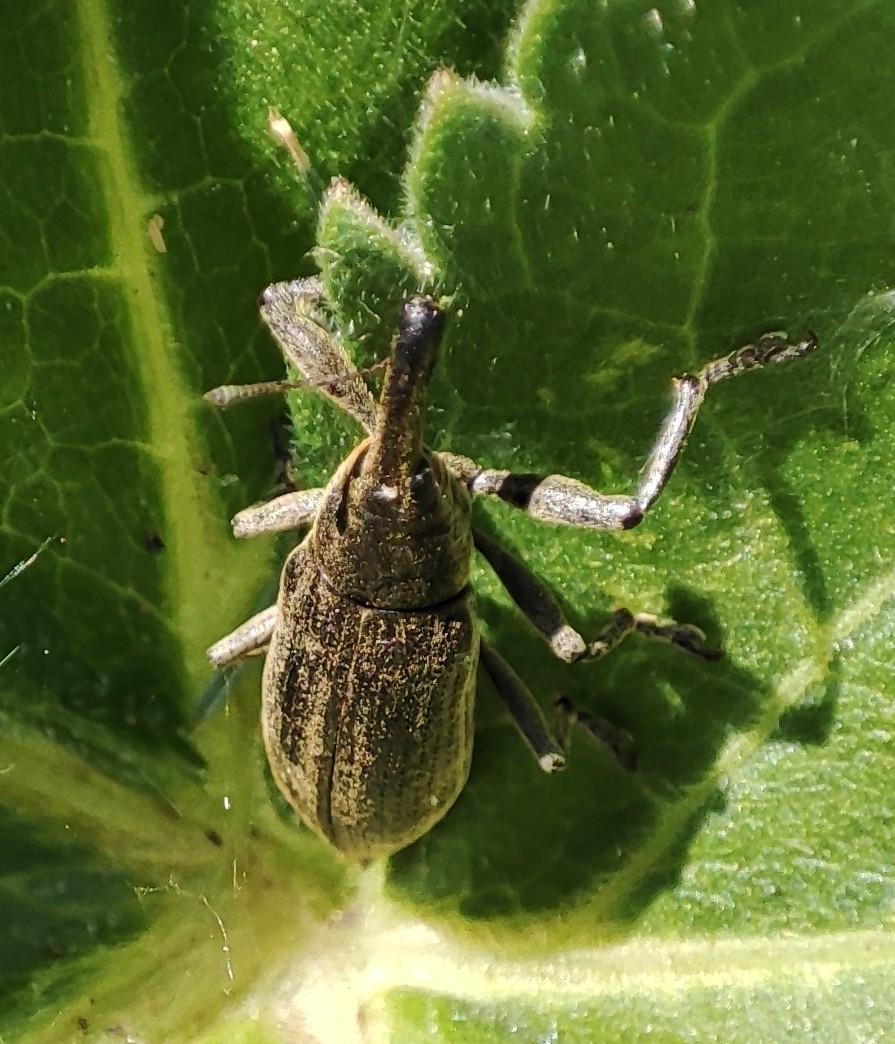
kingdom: Animalia
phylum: Arthropoda
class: Insecta
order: Coleoptera
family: Curculionidae
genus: Lixus
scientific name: Lixus iridis
